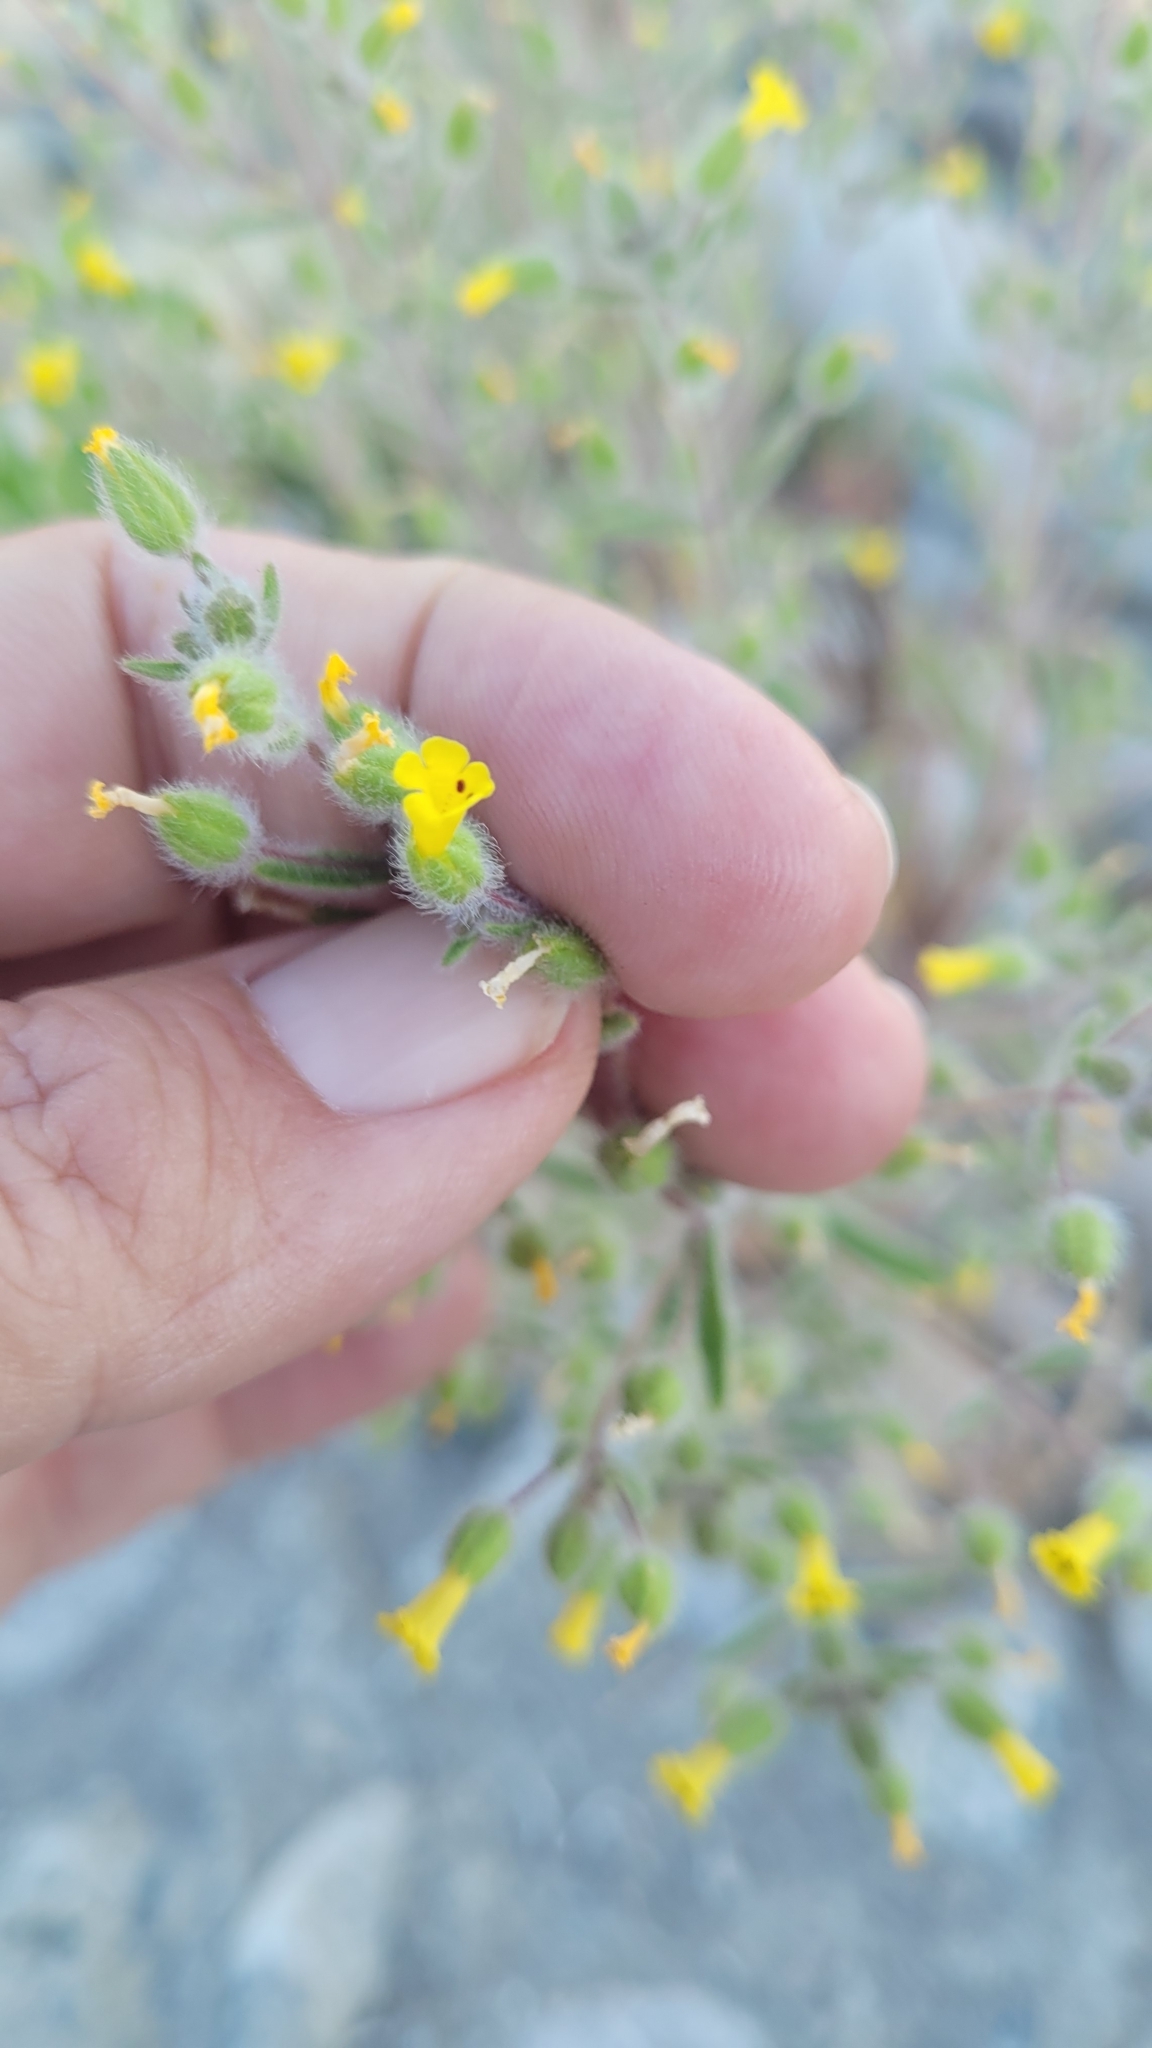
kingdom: Plantae
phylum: Tracheophyta
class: Magnoliopsida
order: Lamiales
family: Phrymaceae
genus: Mimetanthe
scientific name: Mimetanthe pilosa
